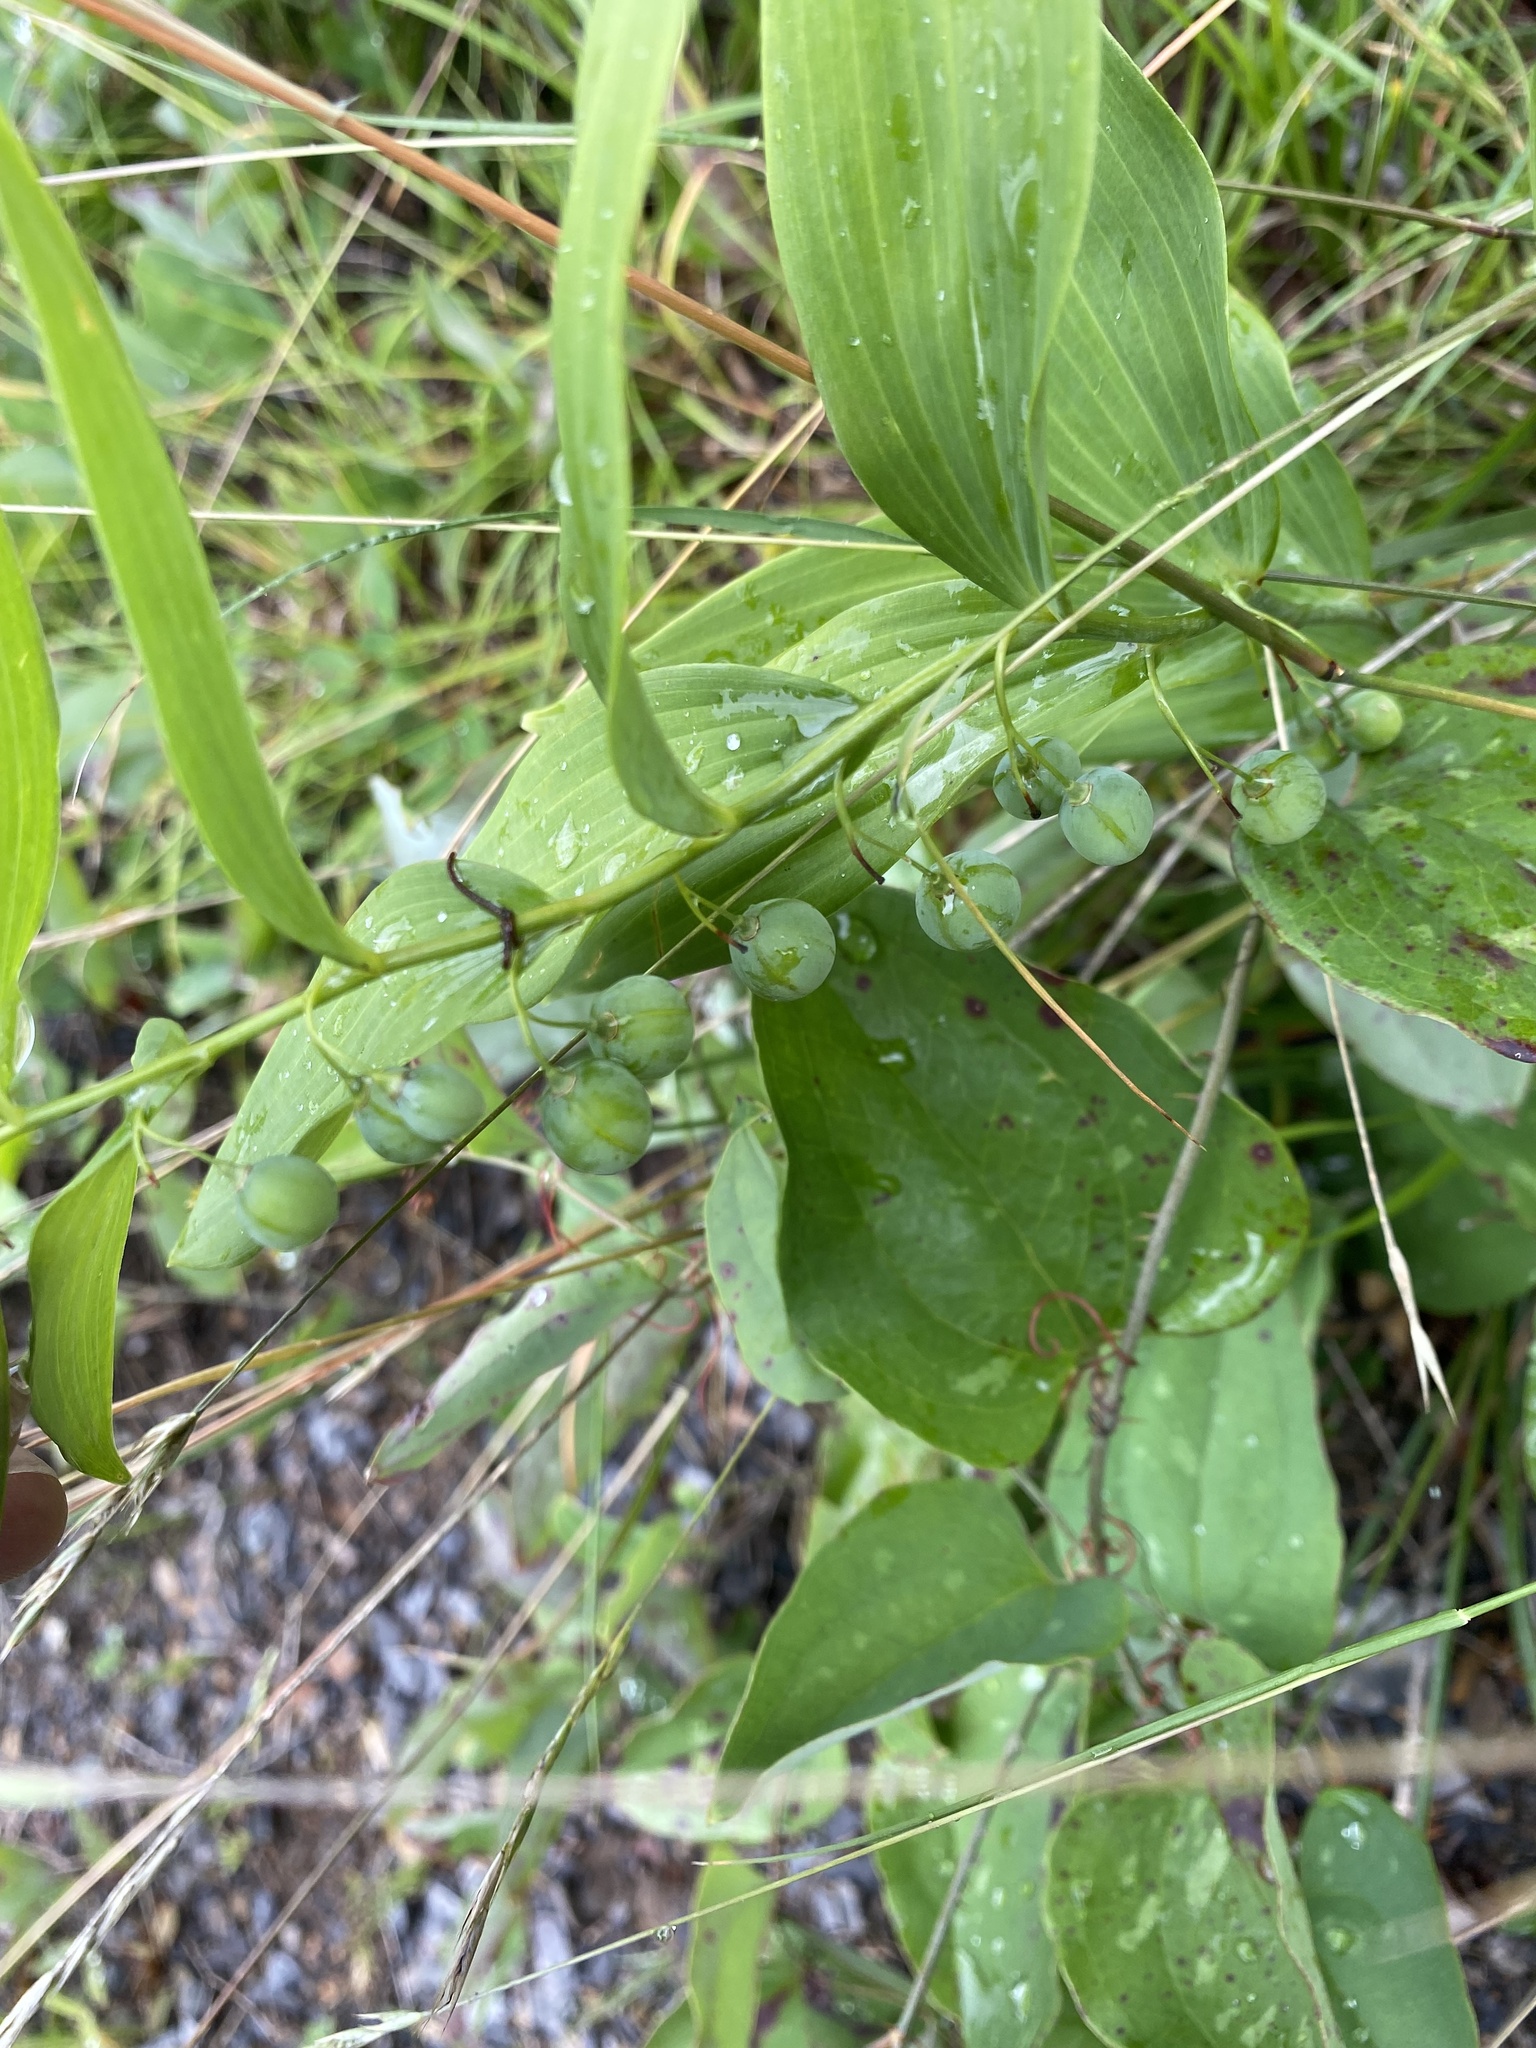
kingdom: Plantae
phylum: Tracheophyta
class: Liliopsida
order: Asparagales
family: Asparagaceae
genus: Polygonatum
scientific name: Polygonatum biflorum
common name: American solomon's-seal
